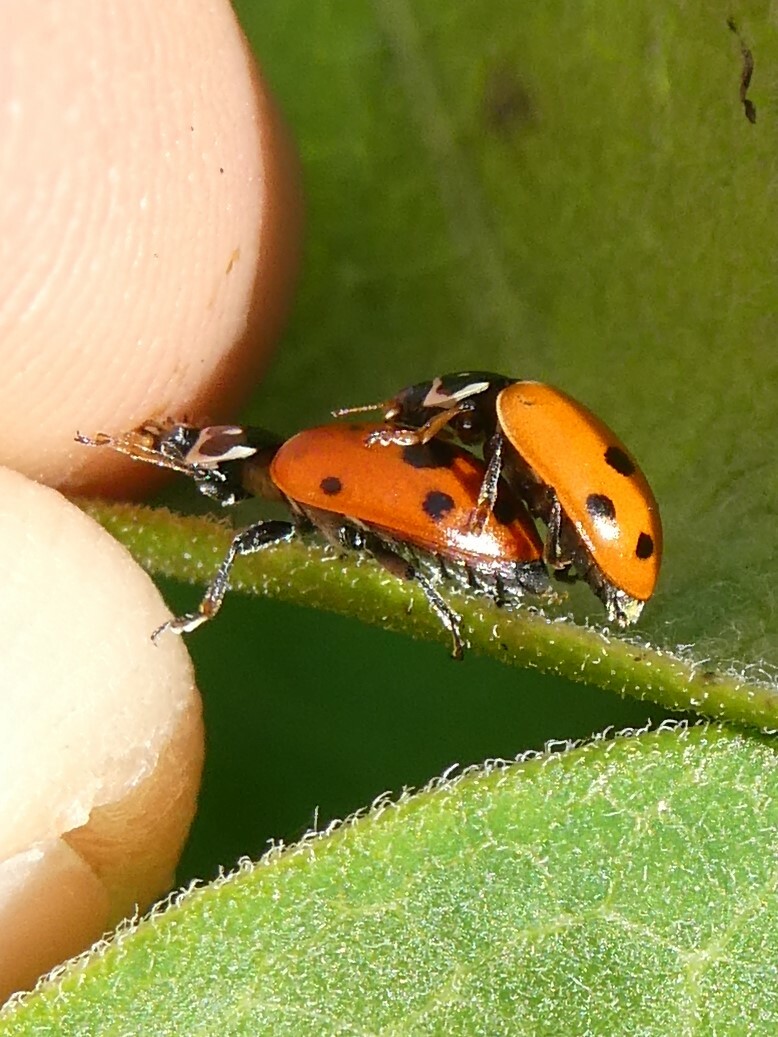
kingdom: Animalia
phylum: Arthropoda
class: Insecta
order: Coleoptera
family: Coccinellidae
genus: Hippodamia
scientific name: Hippodamia variegata
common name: Ladybird beetle
